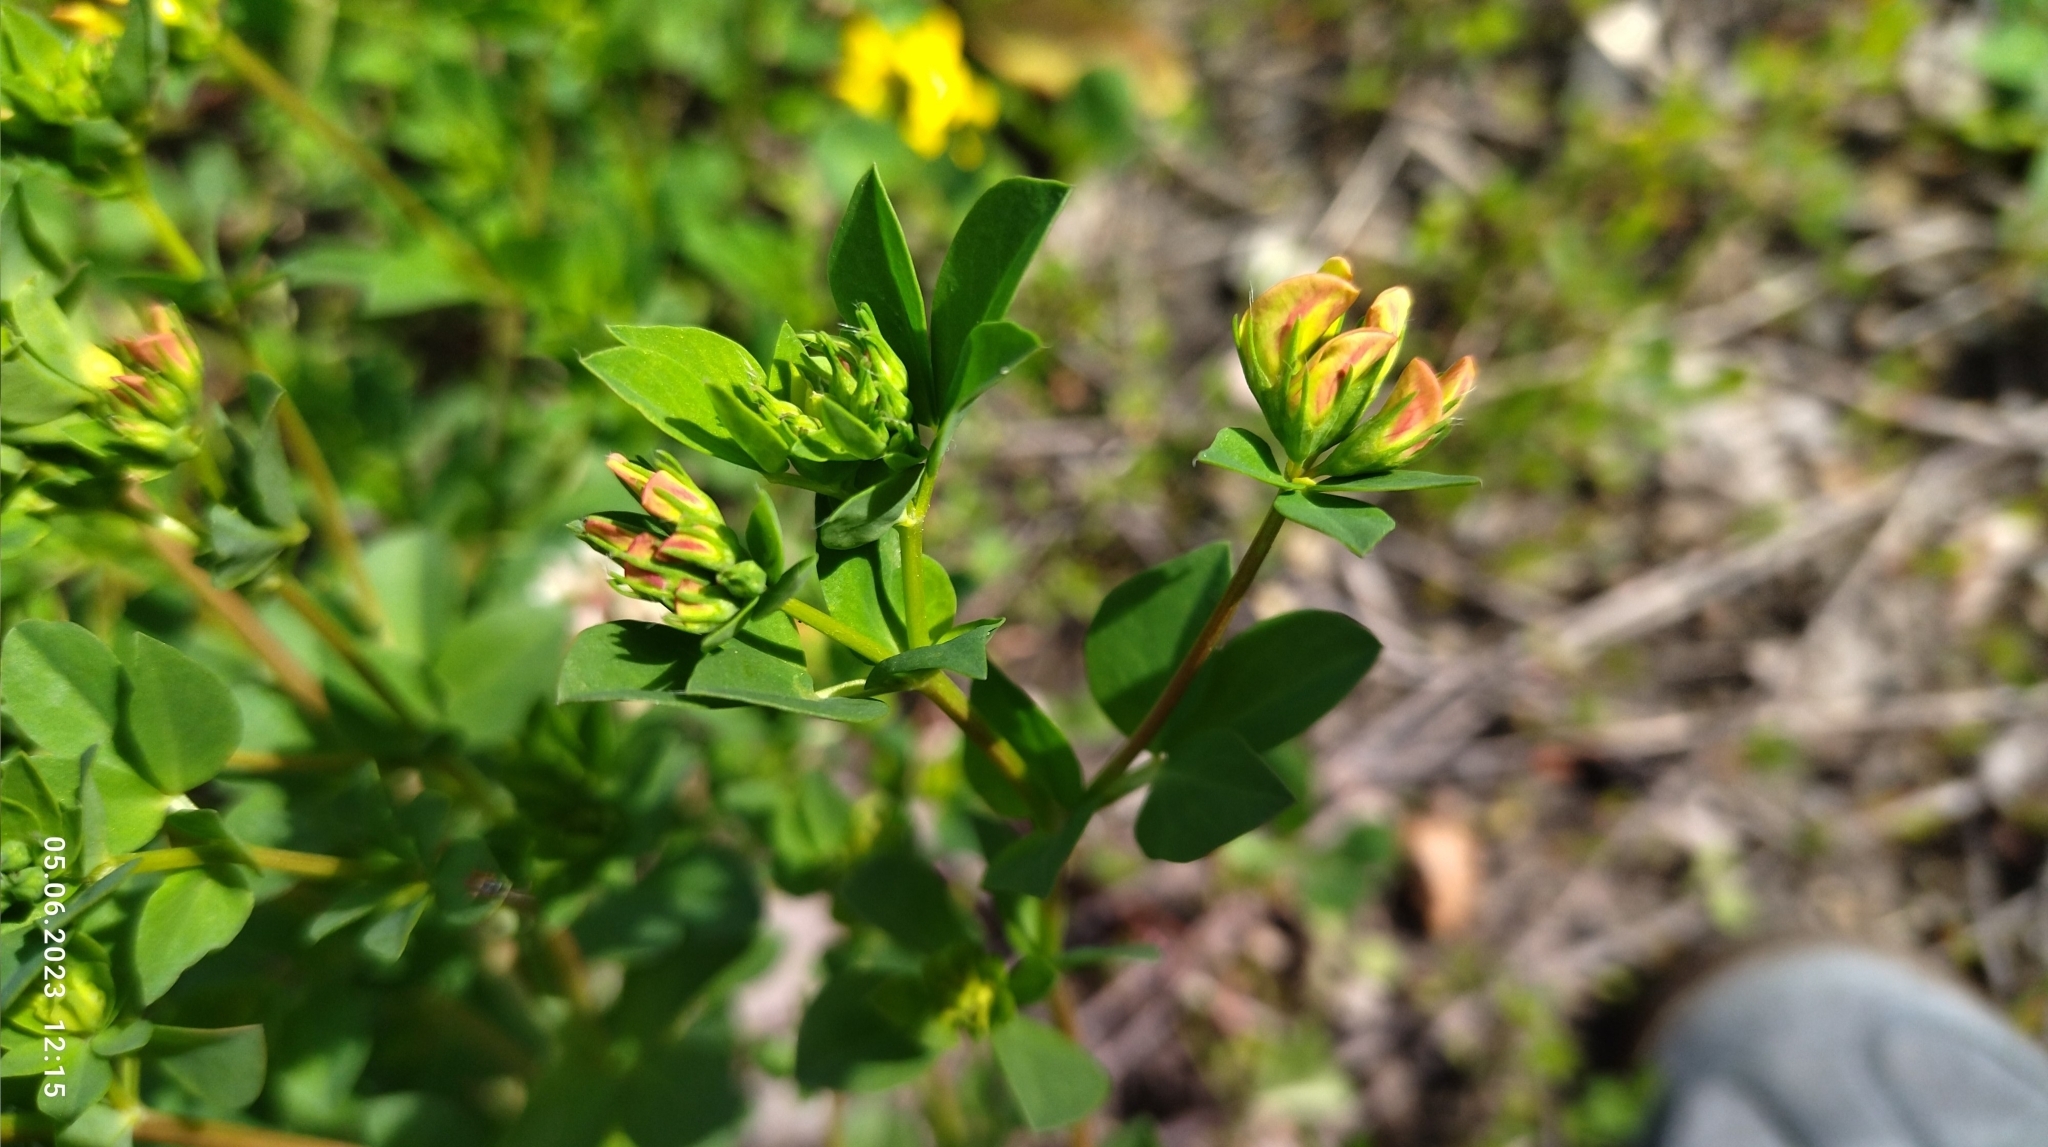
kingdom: Plantae
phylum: Tracheophyta
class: Magnoliopsida
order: Fabales
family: Fabaceae
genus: Lotus
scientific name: Lotus corniculatus
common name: Common bird's-foot-trefoil
